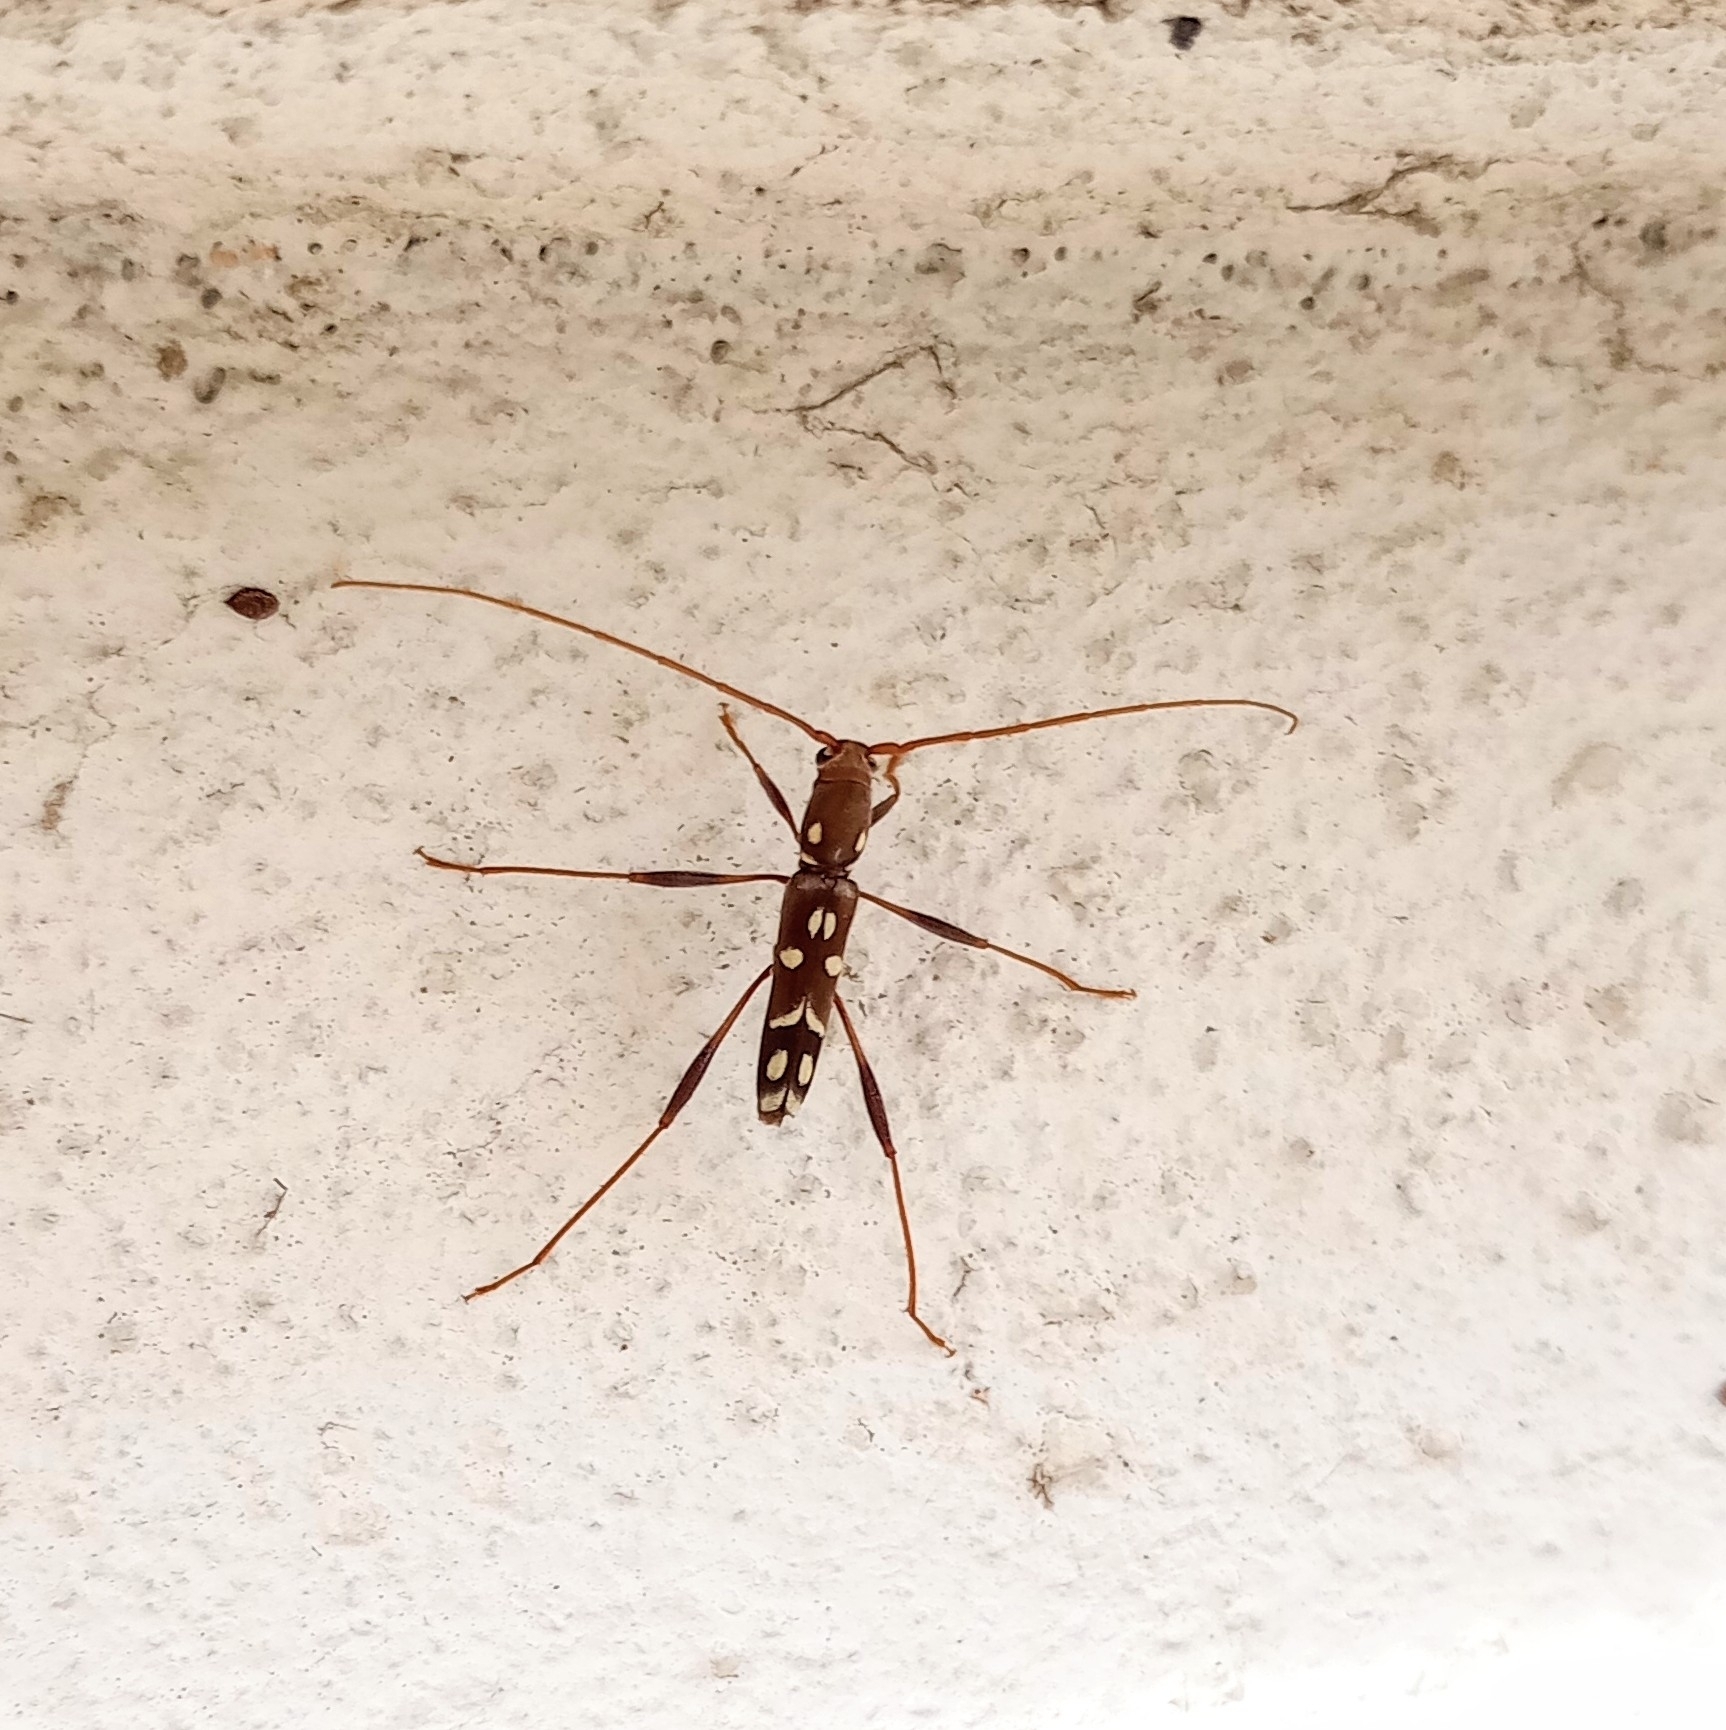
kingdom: Animalia
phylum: Arthropoda
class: Insecta
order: Coleoptera
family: Cerambycidae
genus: Clytocera
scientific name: Clytocera chionospila
